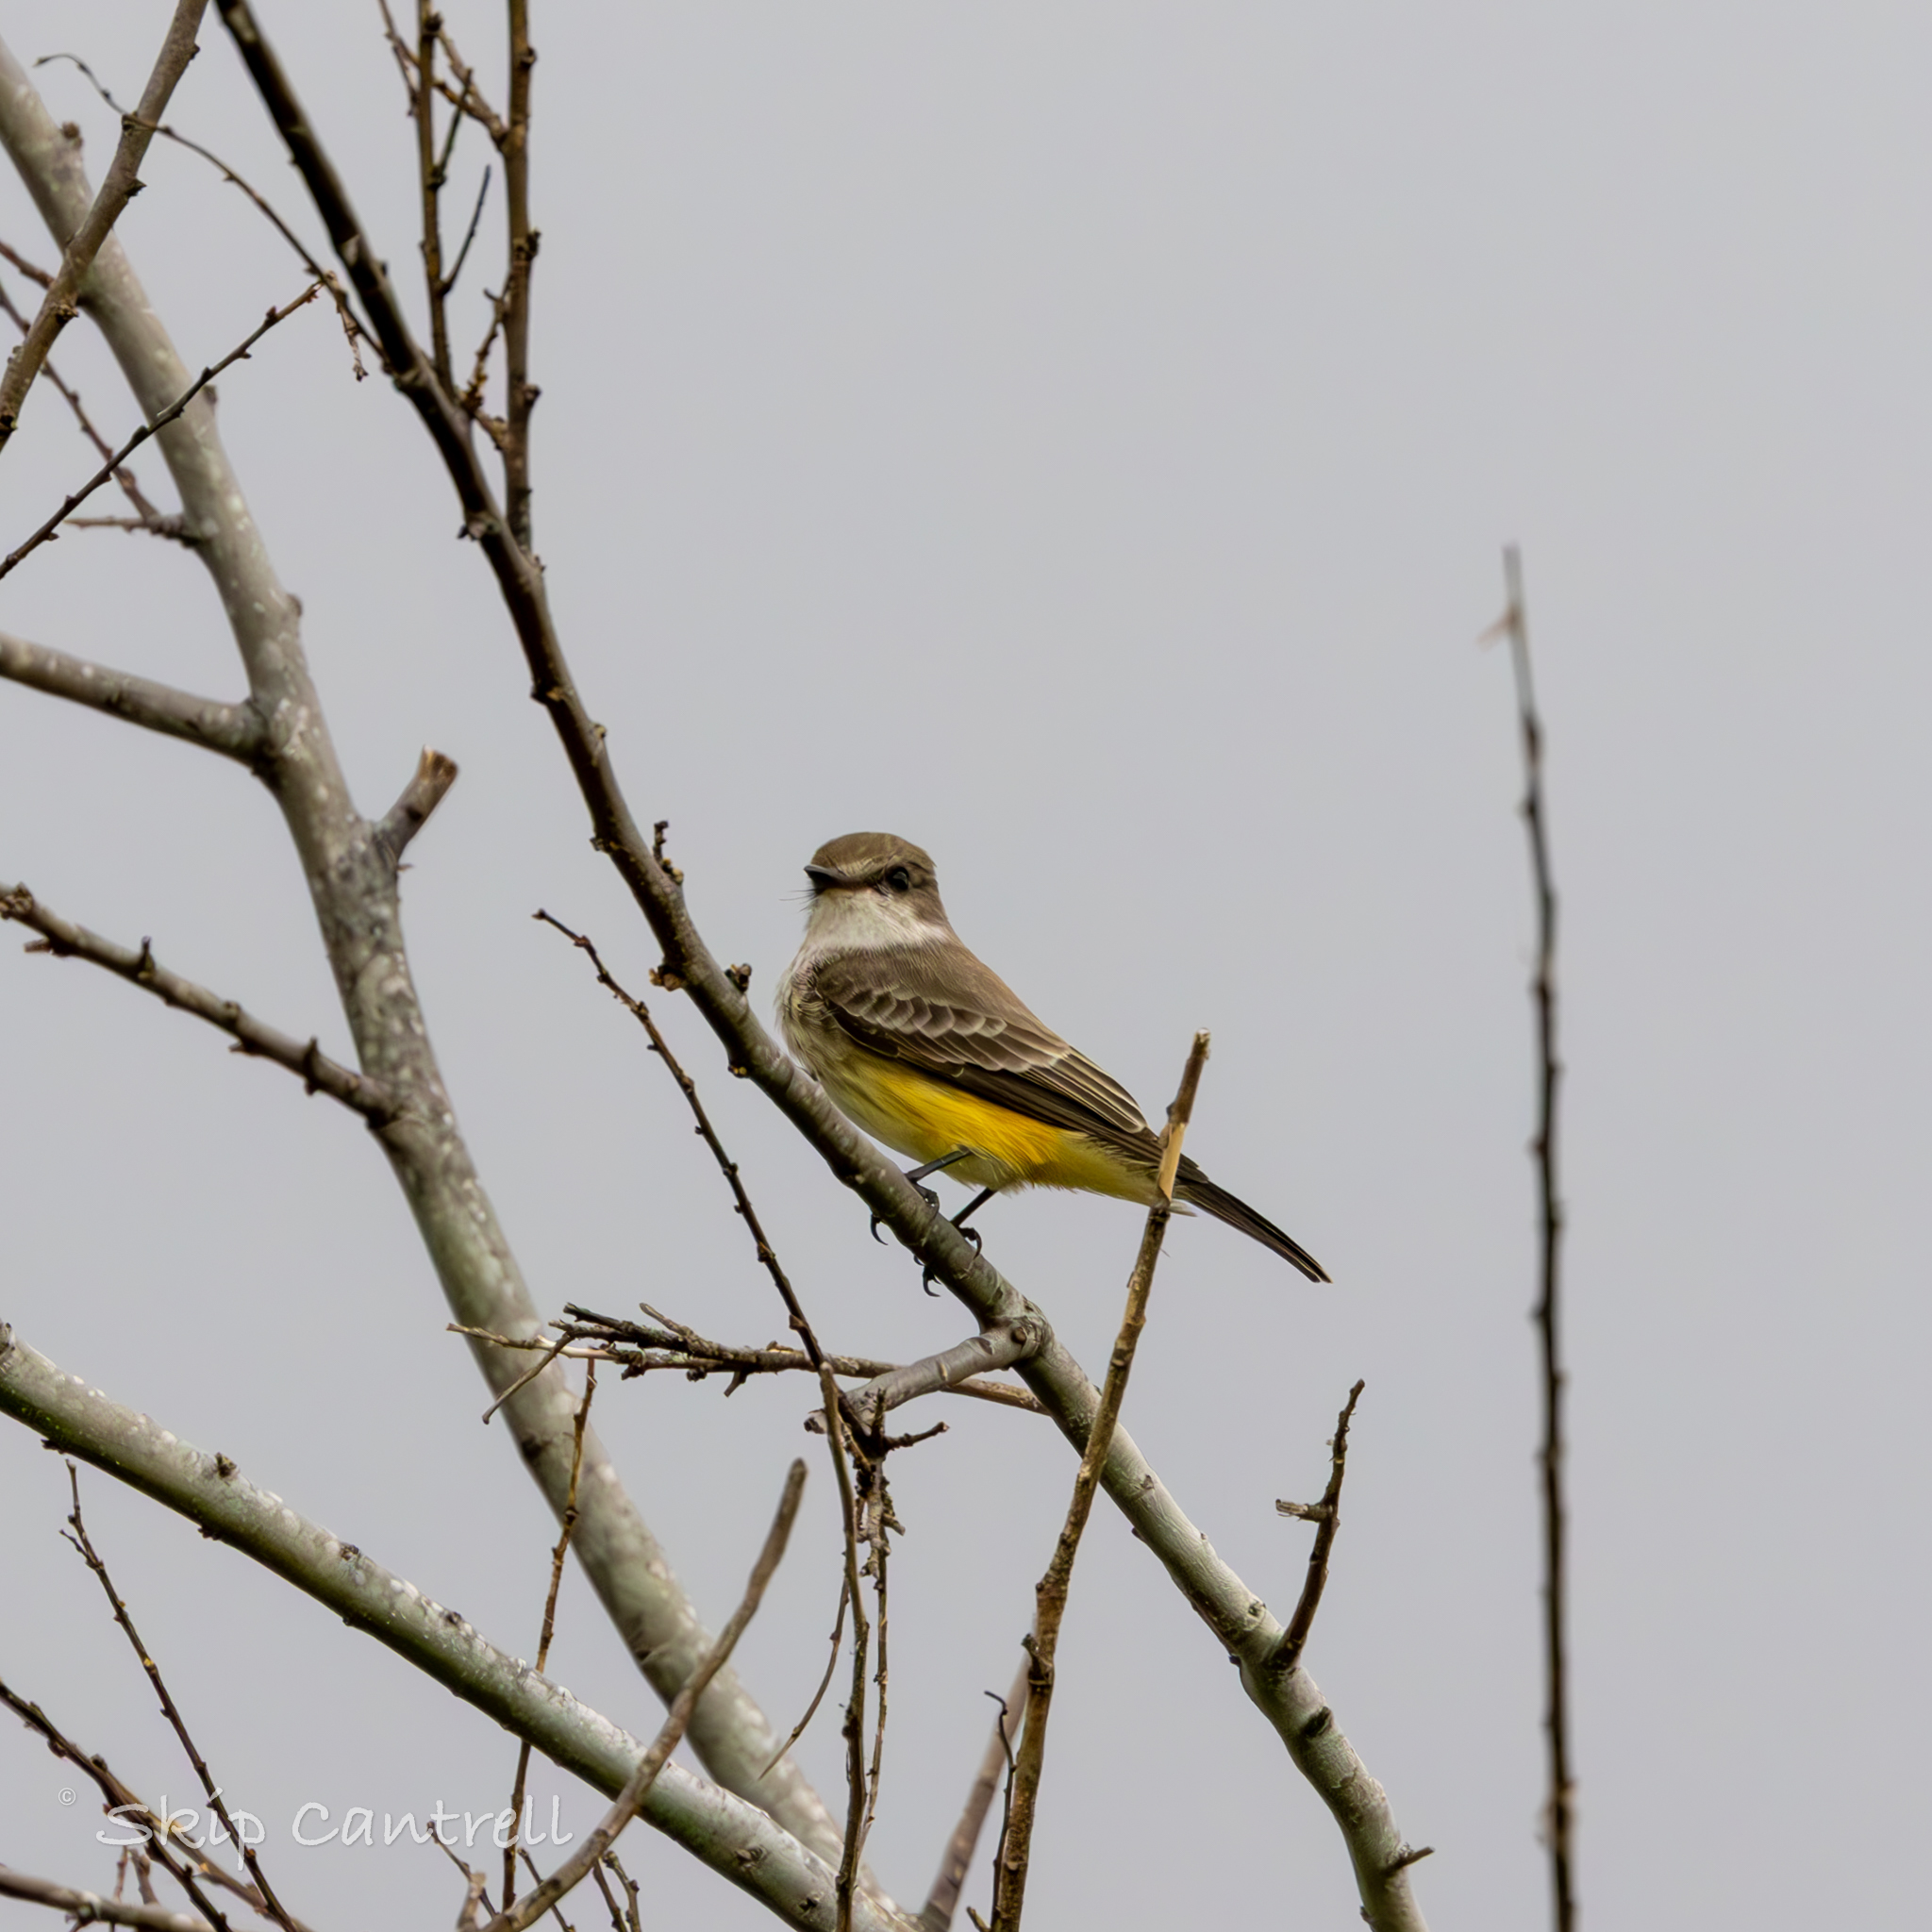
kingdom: Animalia
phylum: Chordata
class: Aves
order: Passeriformes
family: Tyrannidae
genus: Pyrocephalus
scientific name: Pyrocephalus rubinus
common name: Vermilion flycatcher
